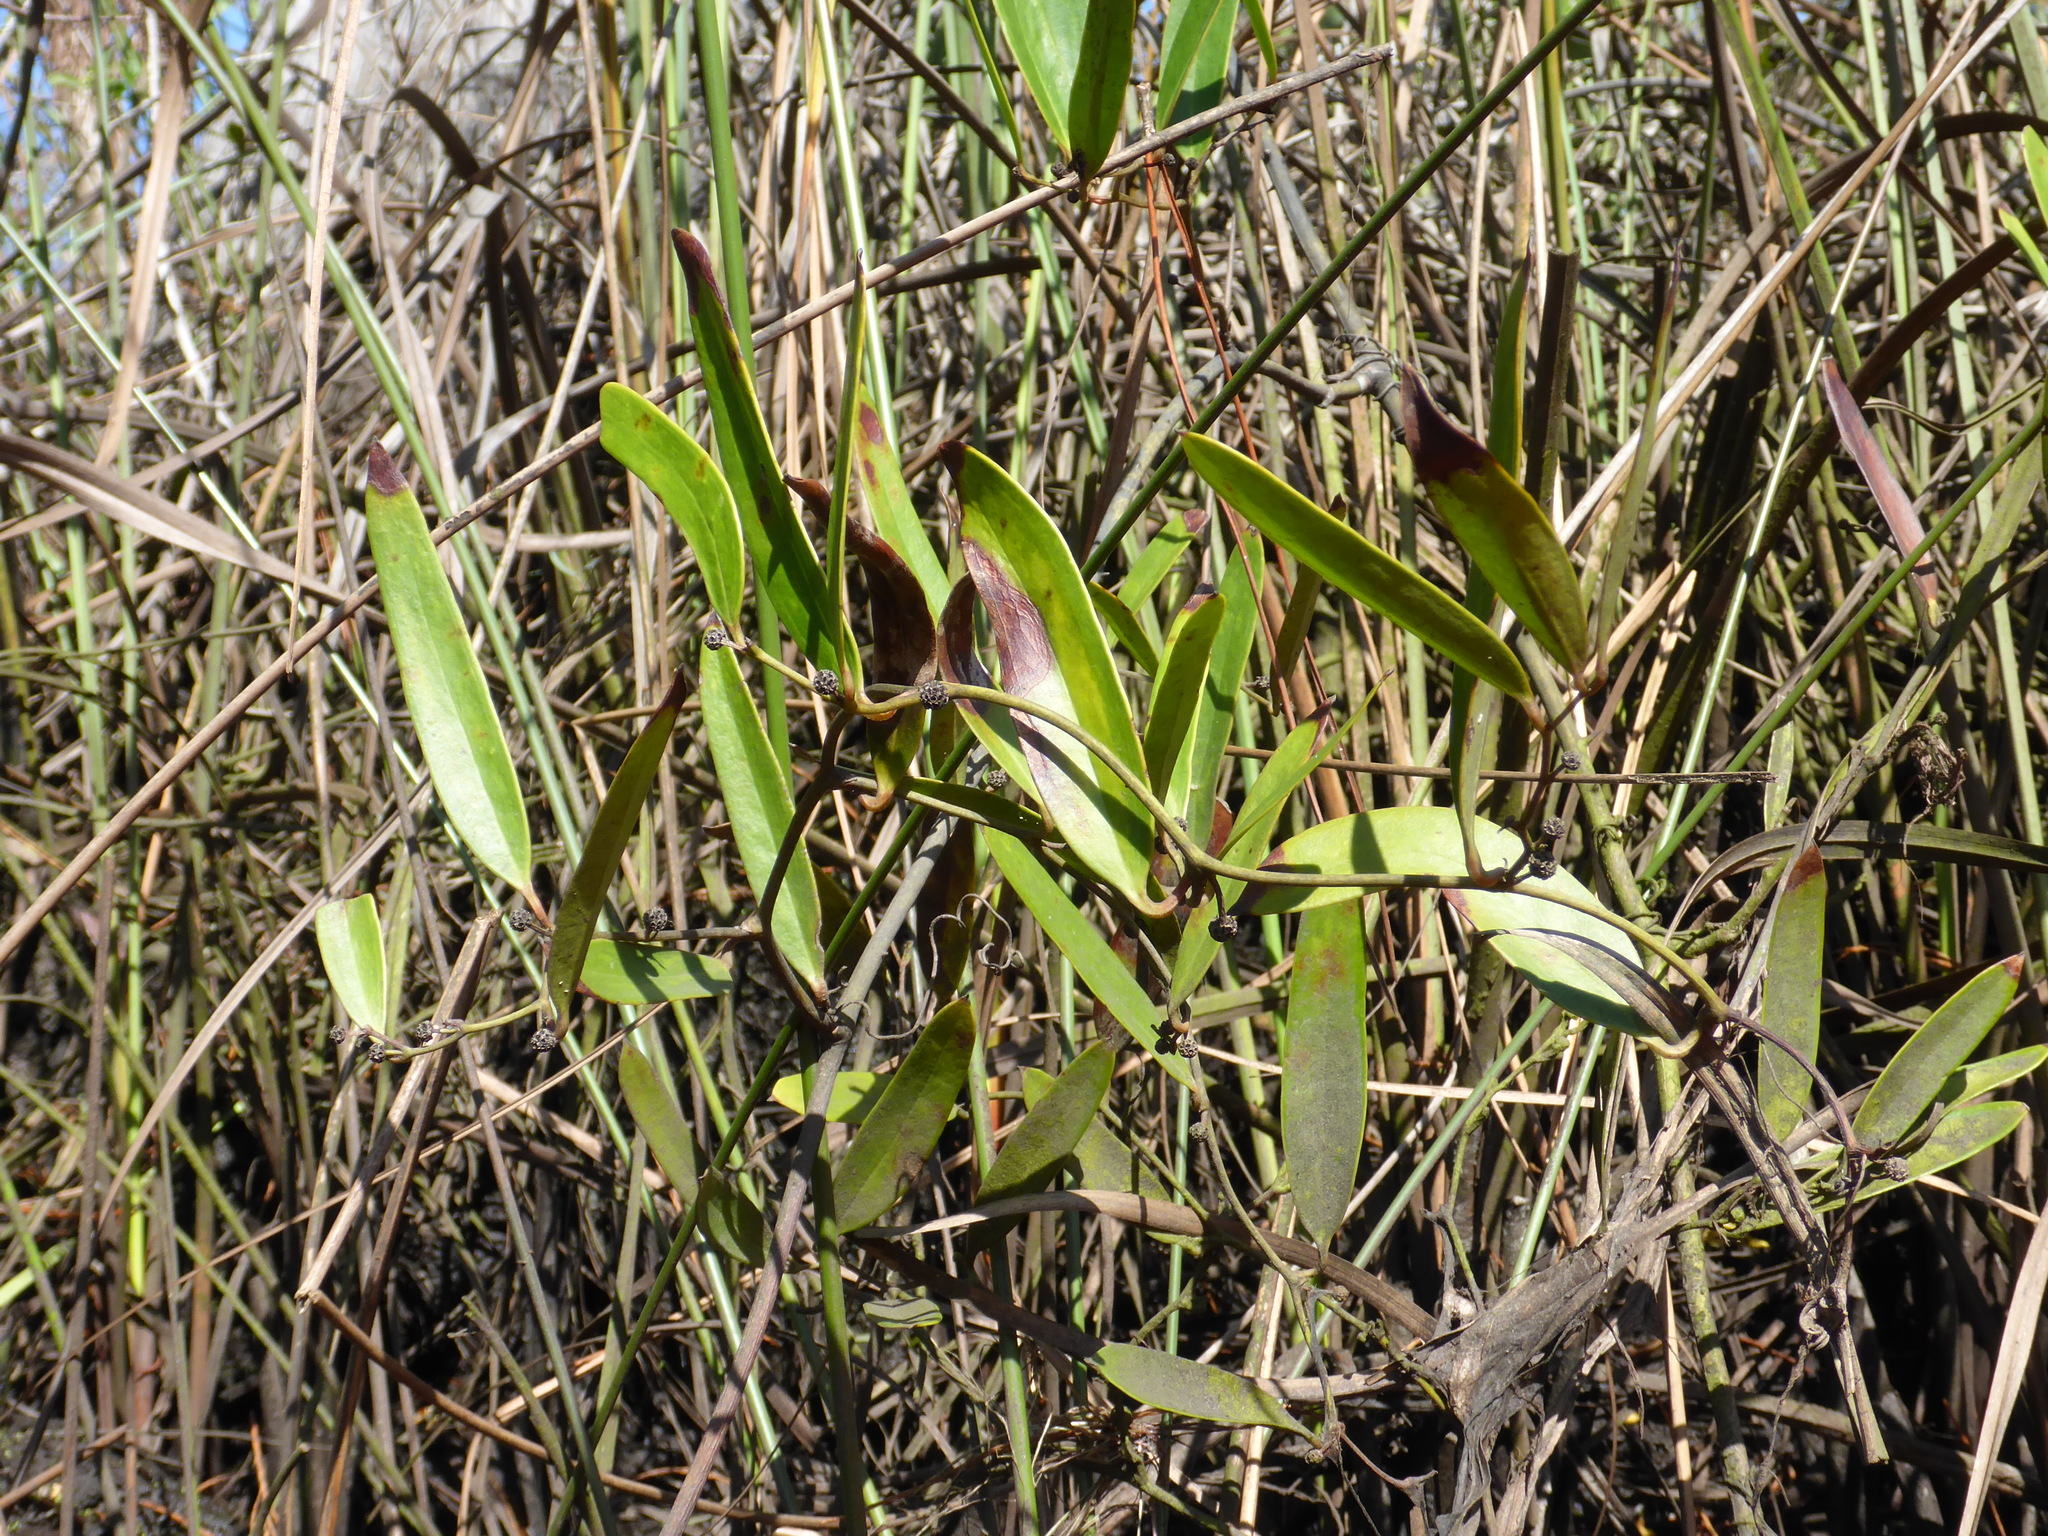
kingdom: Plantae
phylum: Tracheophyta
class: Liliopsida
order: Liliales
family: Smilacaceae
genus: Smilax
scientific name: Smilax laurifolia
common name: Bamboovine
